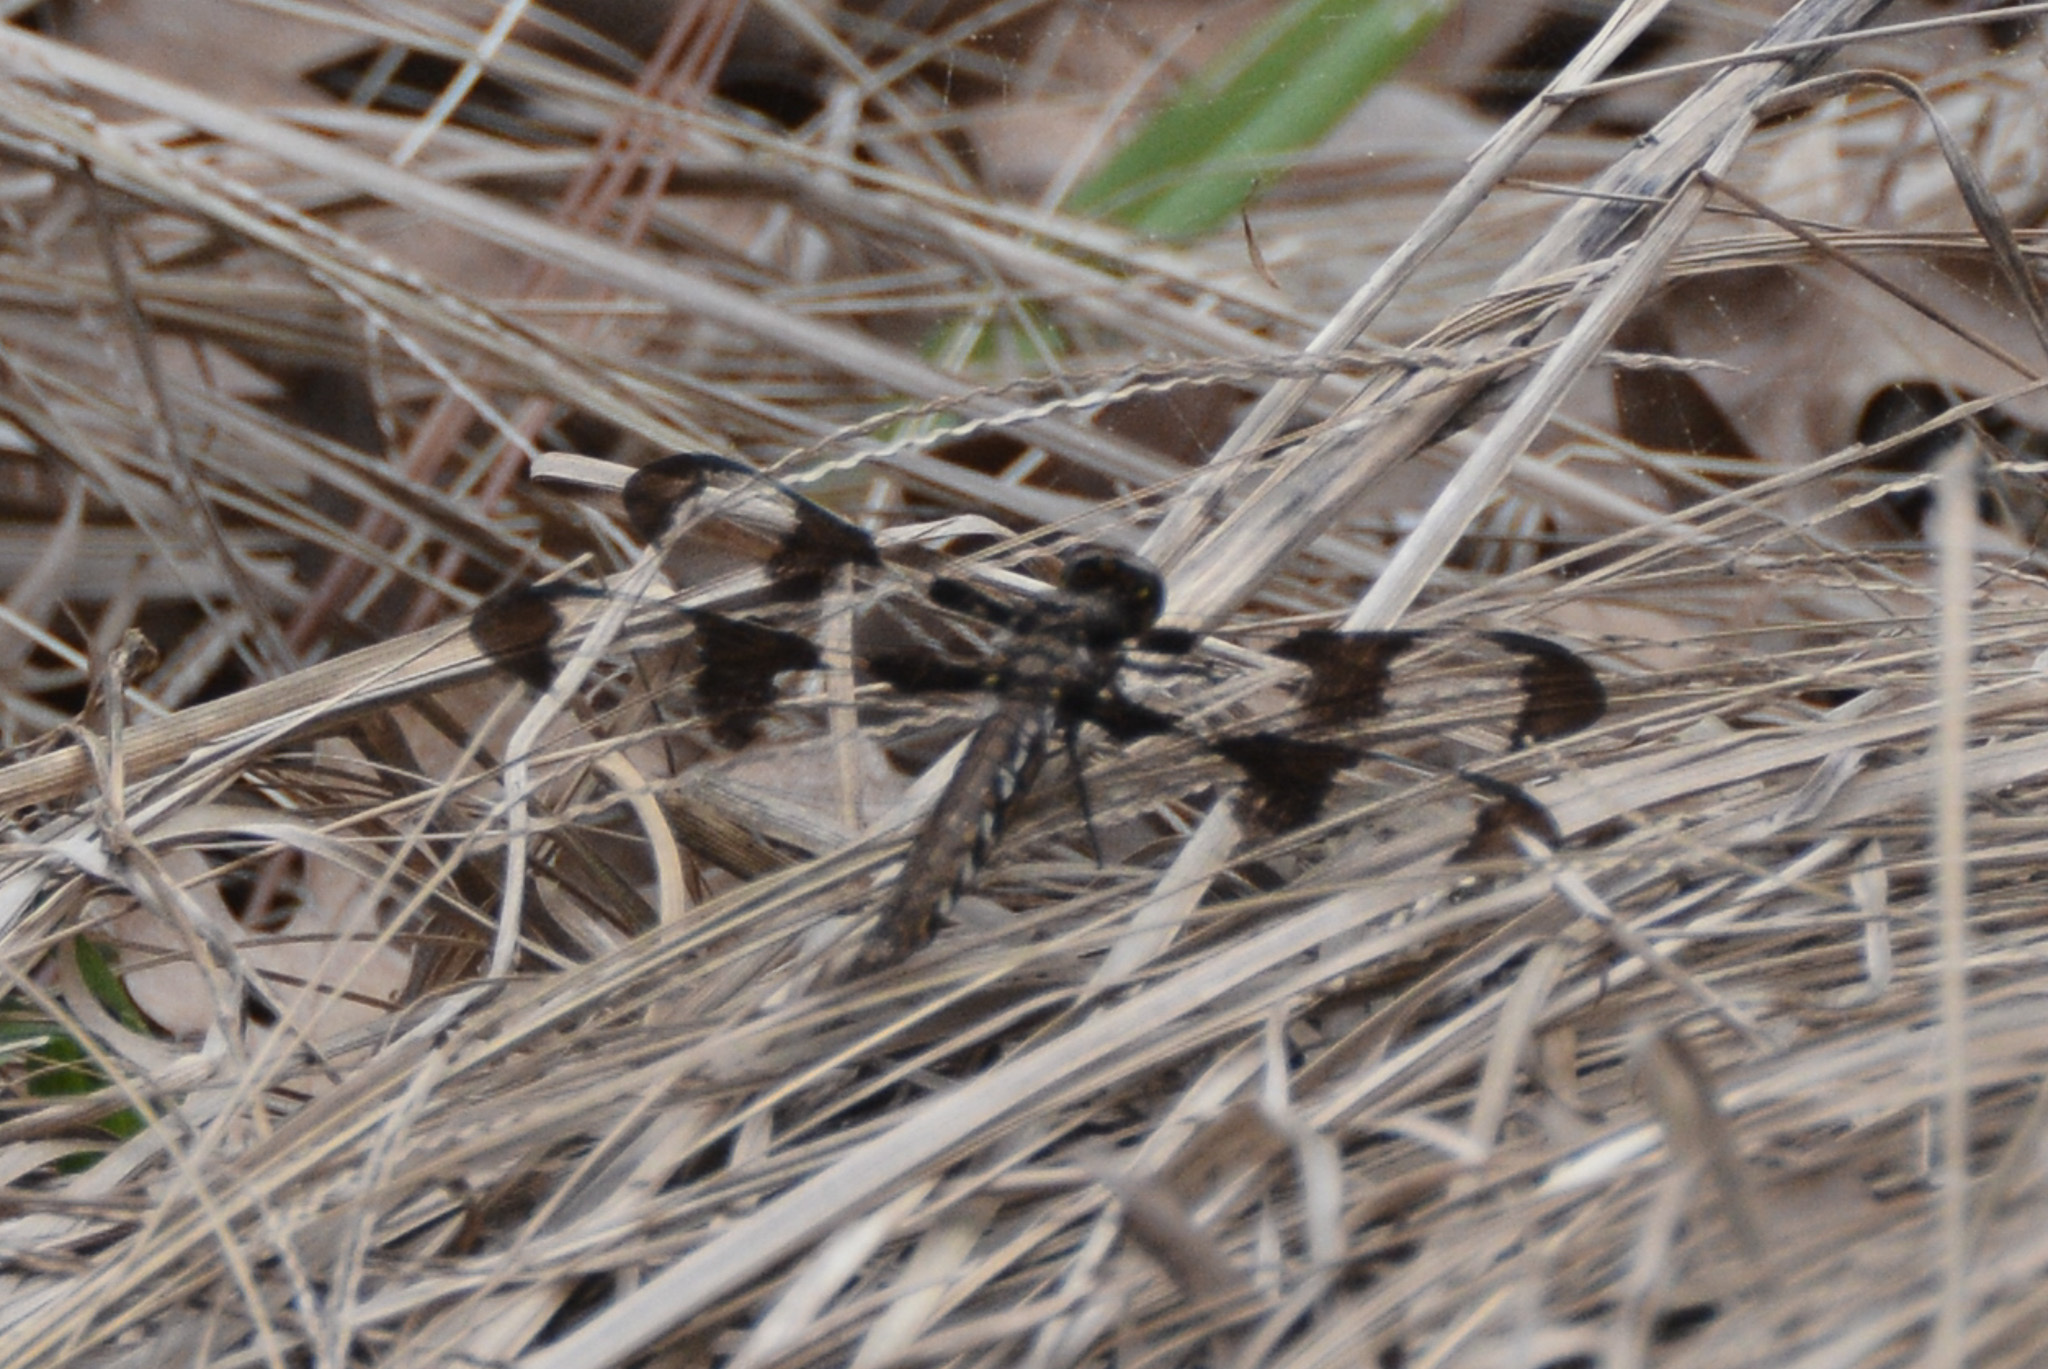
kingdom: Animalia
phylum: Arthropoda
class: Insecta
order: Odonata
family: Libellulidae
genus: Plathemis
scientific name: Plathemis lydia
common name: Common whitetail
